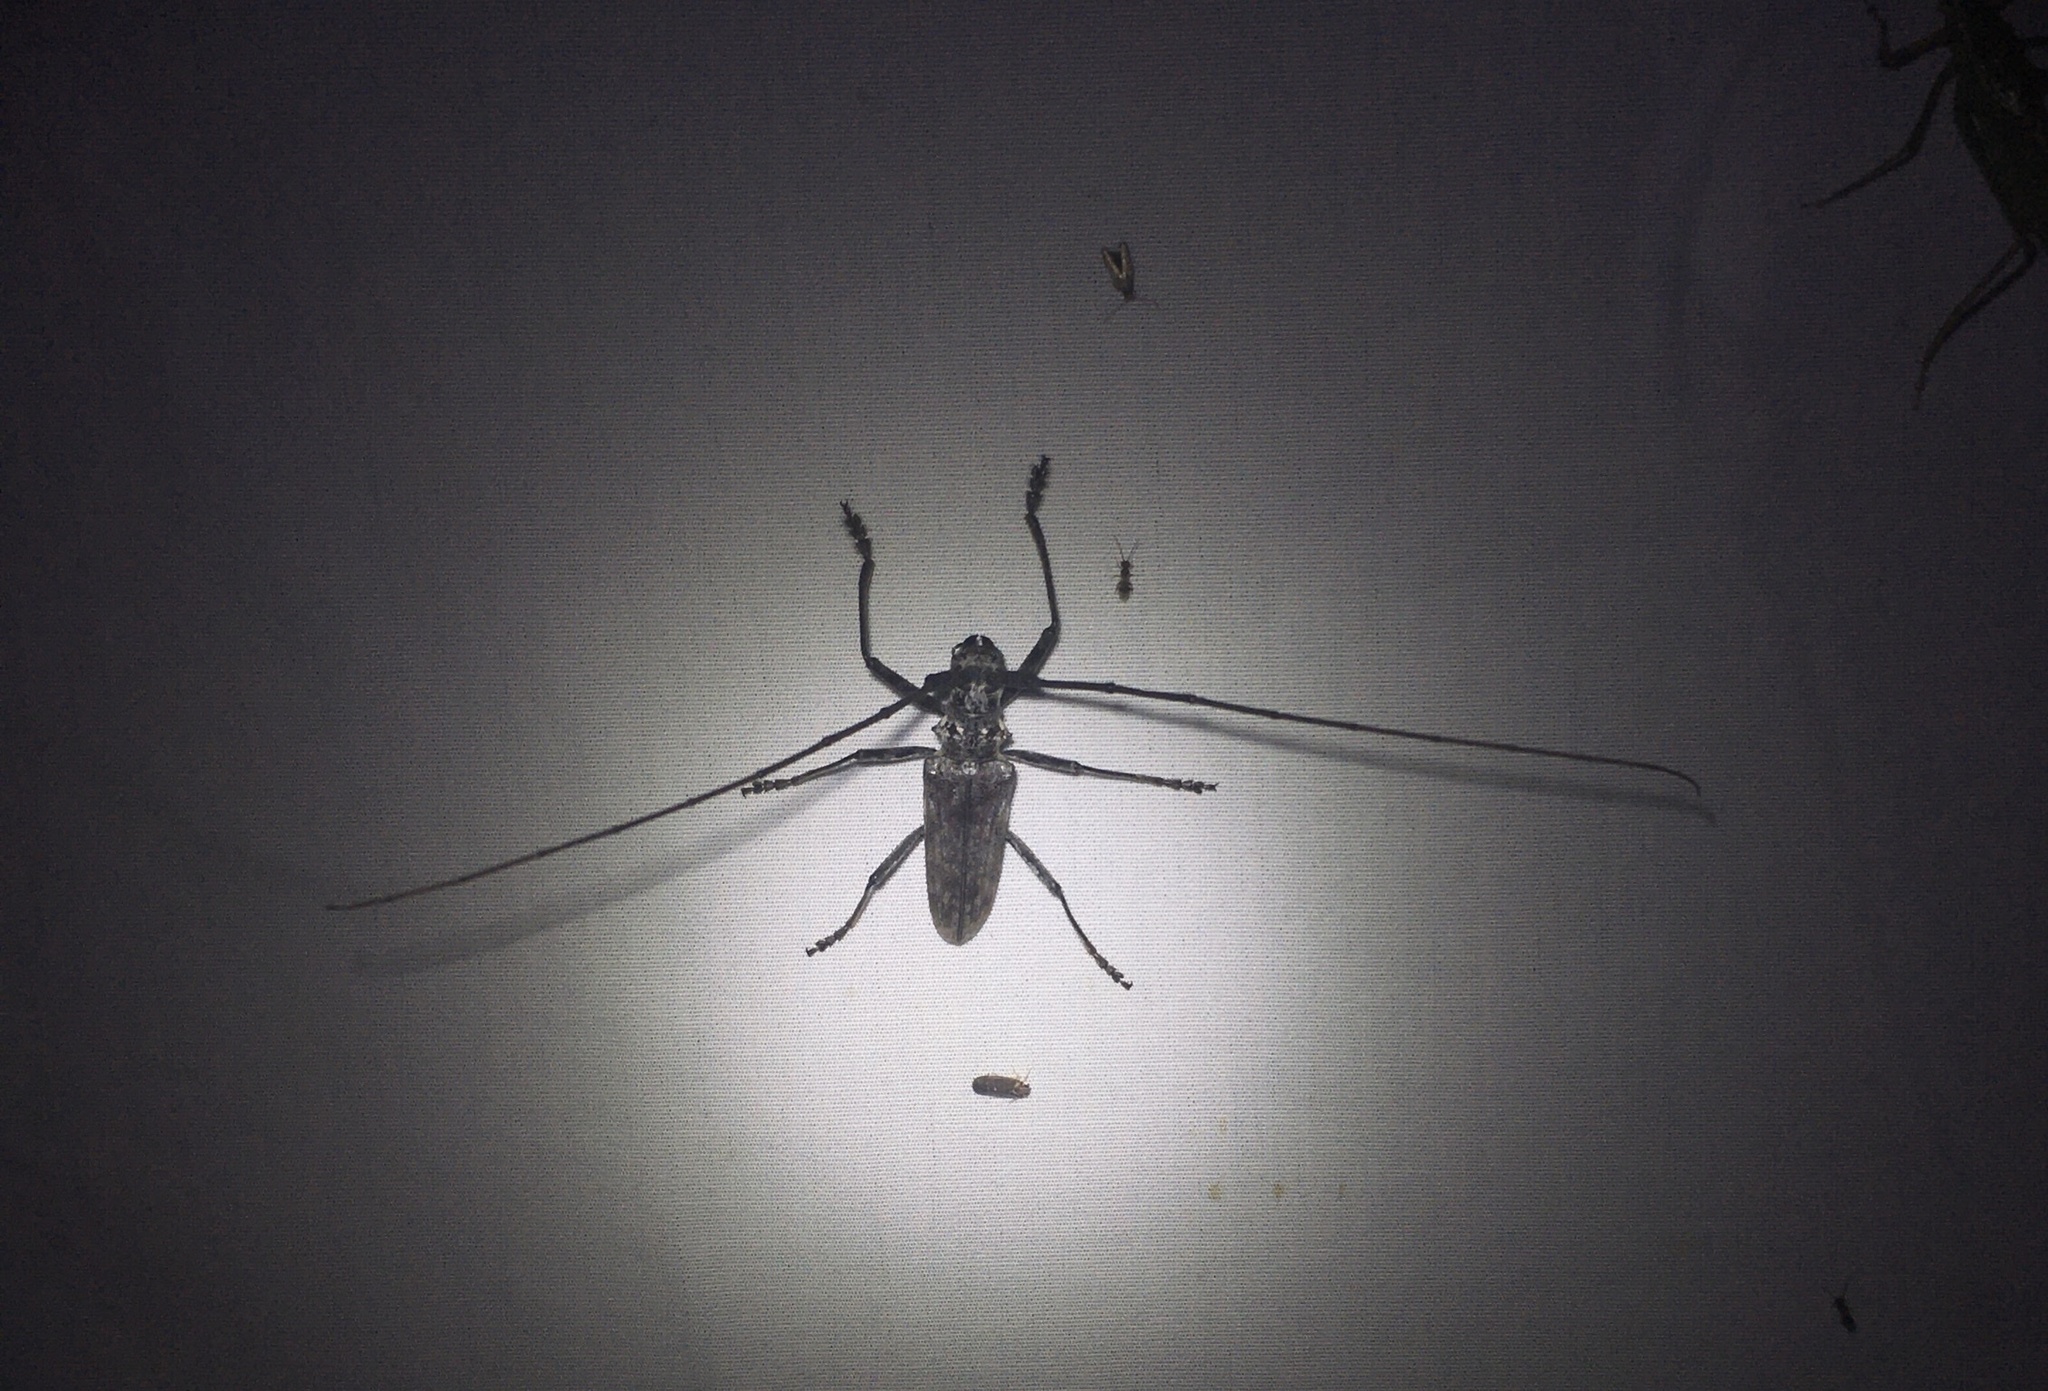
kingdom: Animalia
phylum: Arthropoda
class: Insecta
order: Coleoptera
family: Cerambycidae
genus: Monochamus
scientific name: Monochamus notatus
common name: Northeastern pine sawyer beetle
